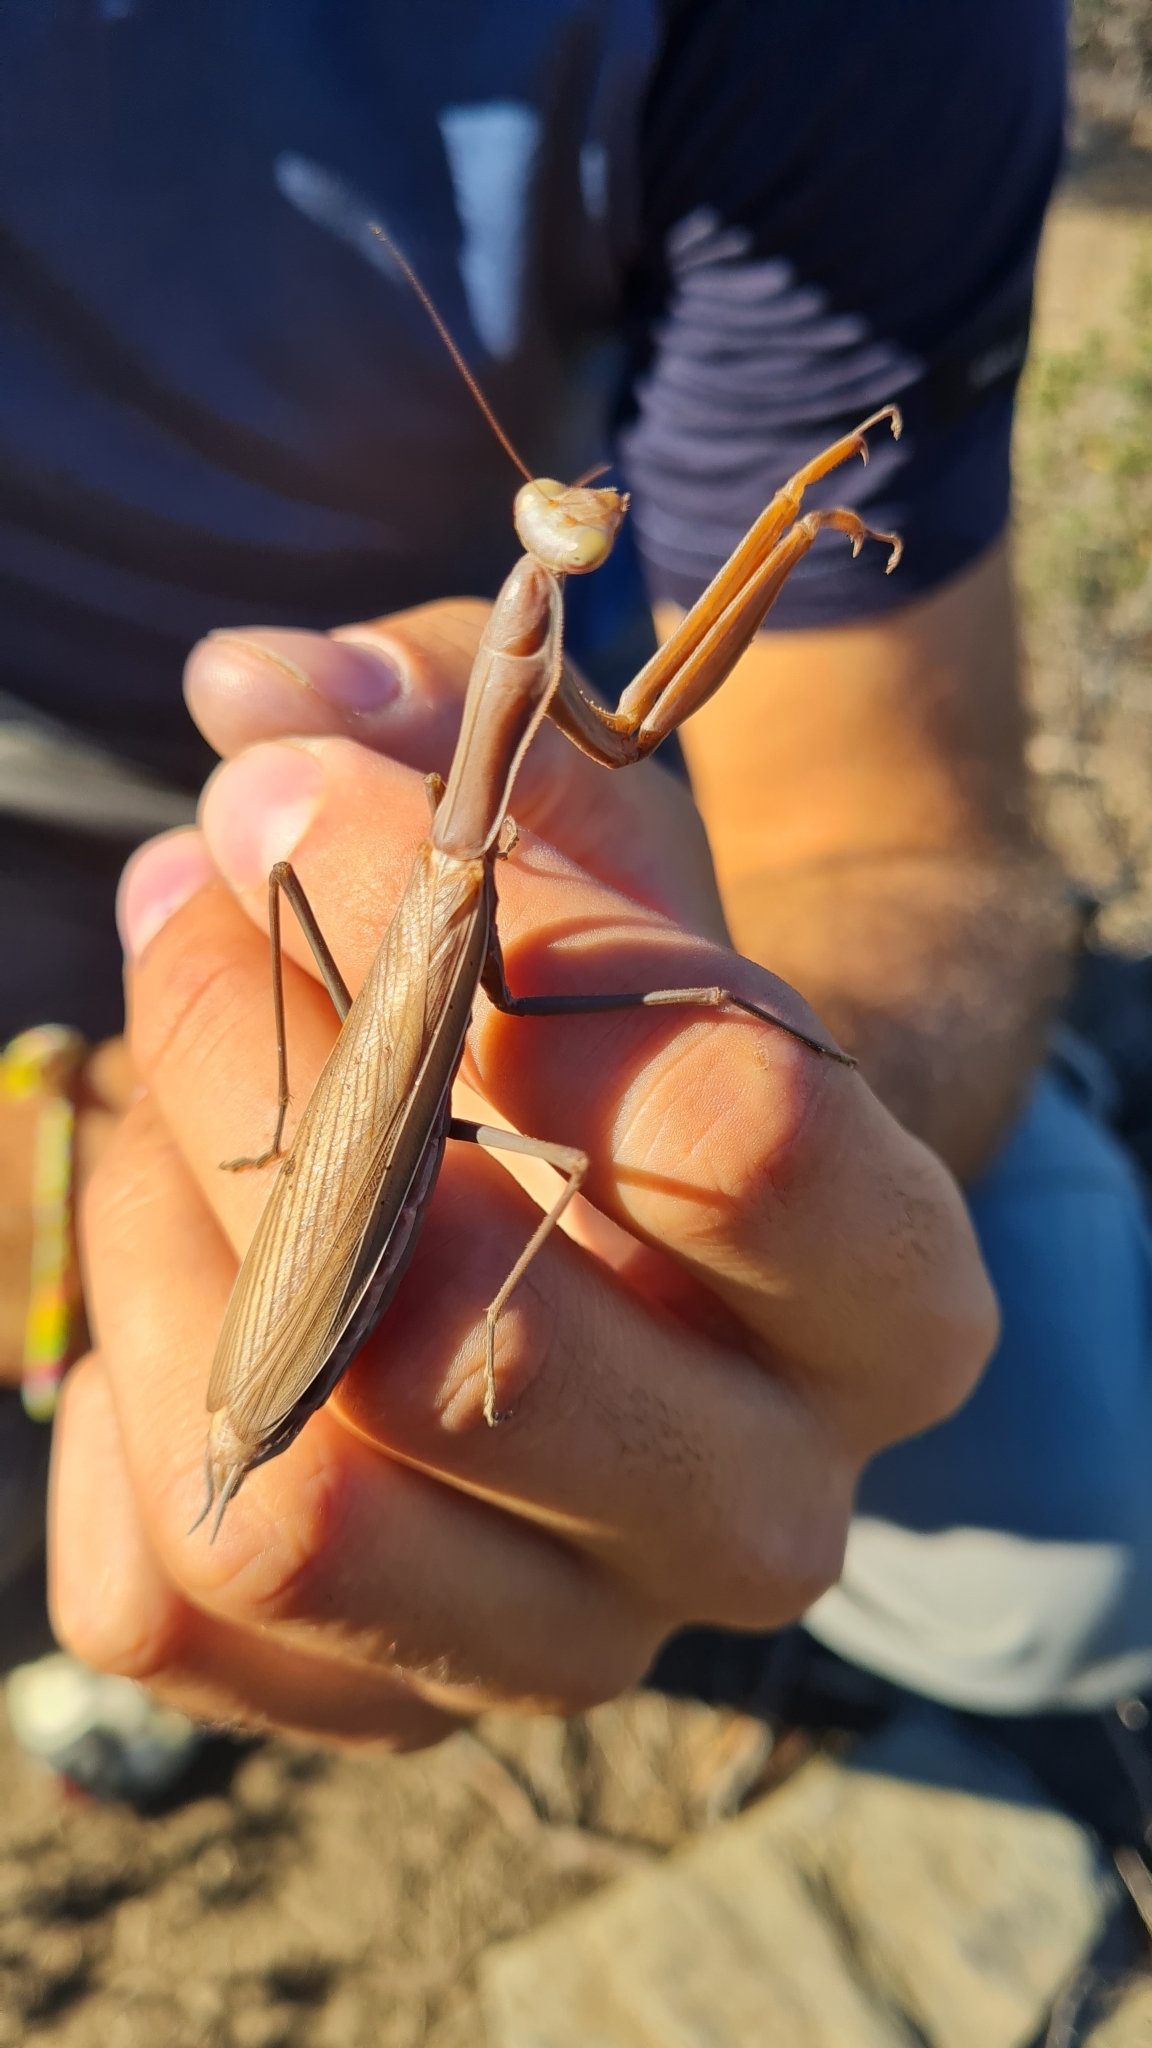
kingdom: Animalia
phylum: Arthropoda
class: Insecta
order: Mantodea
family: Mantidae
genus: Mantis
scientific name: Mantis religiosa
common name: Praying mantis
